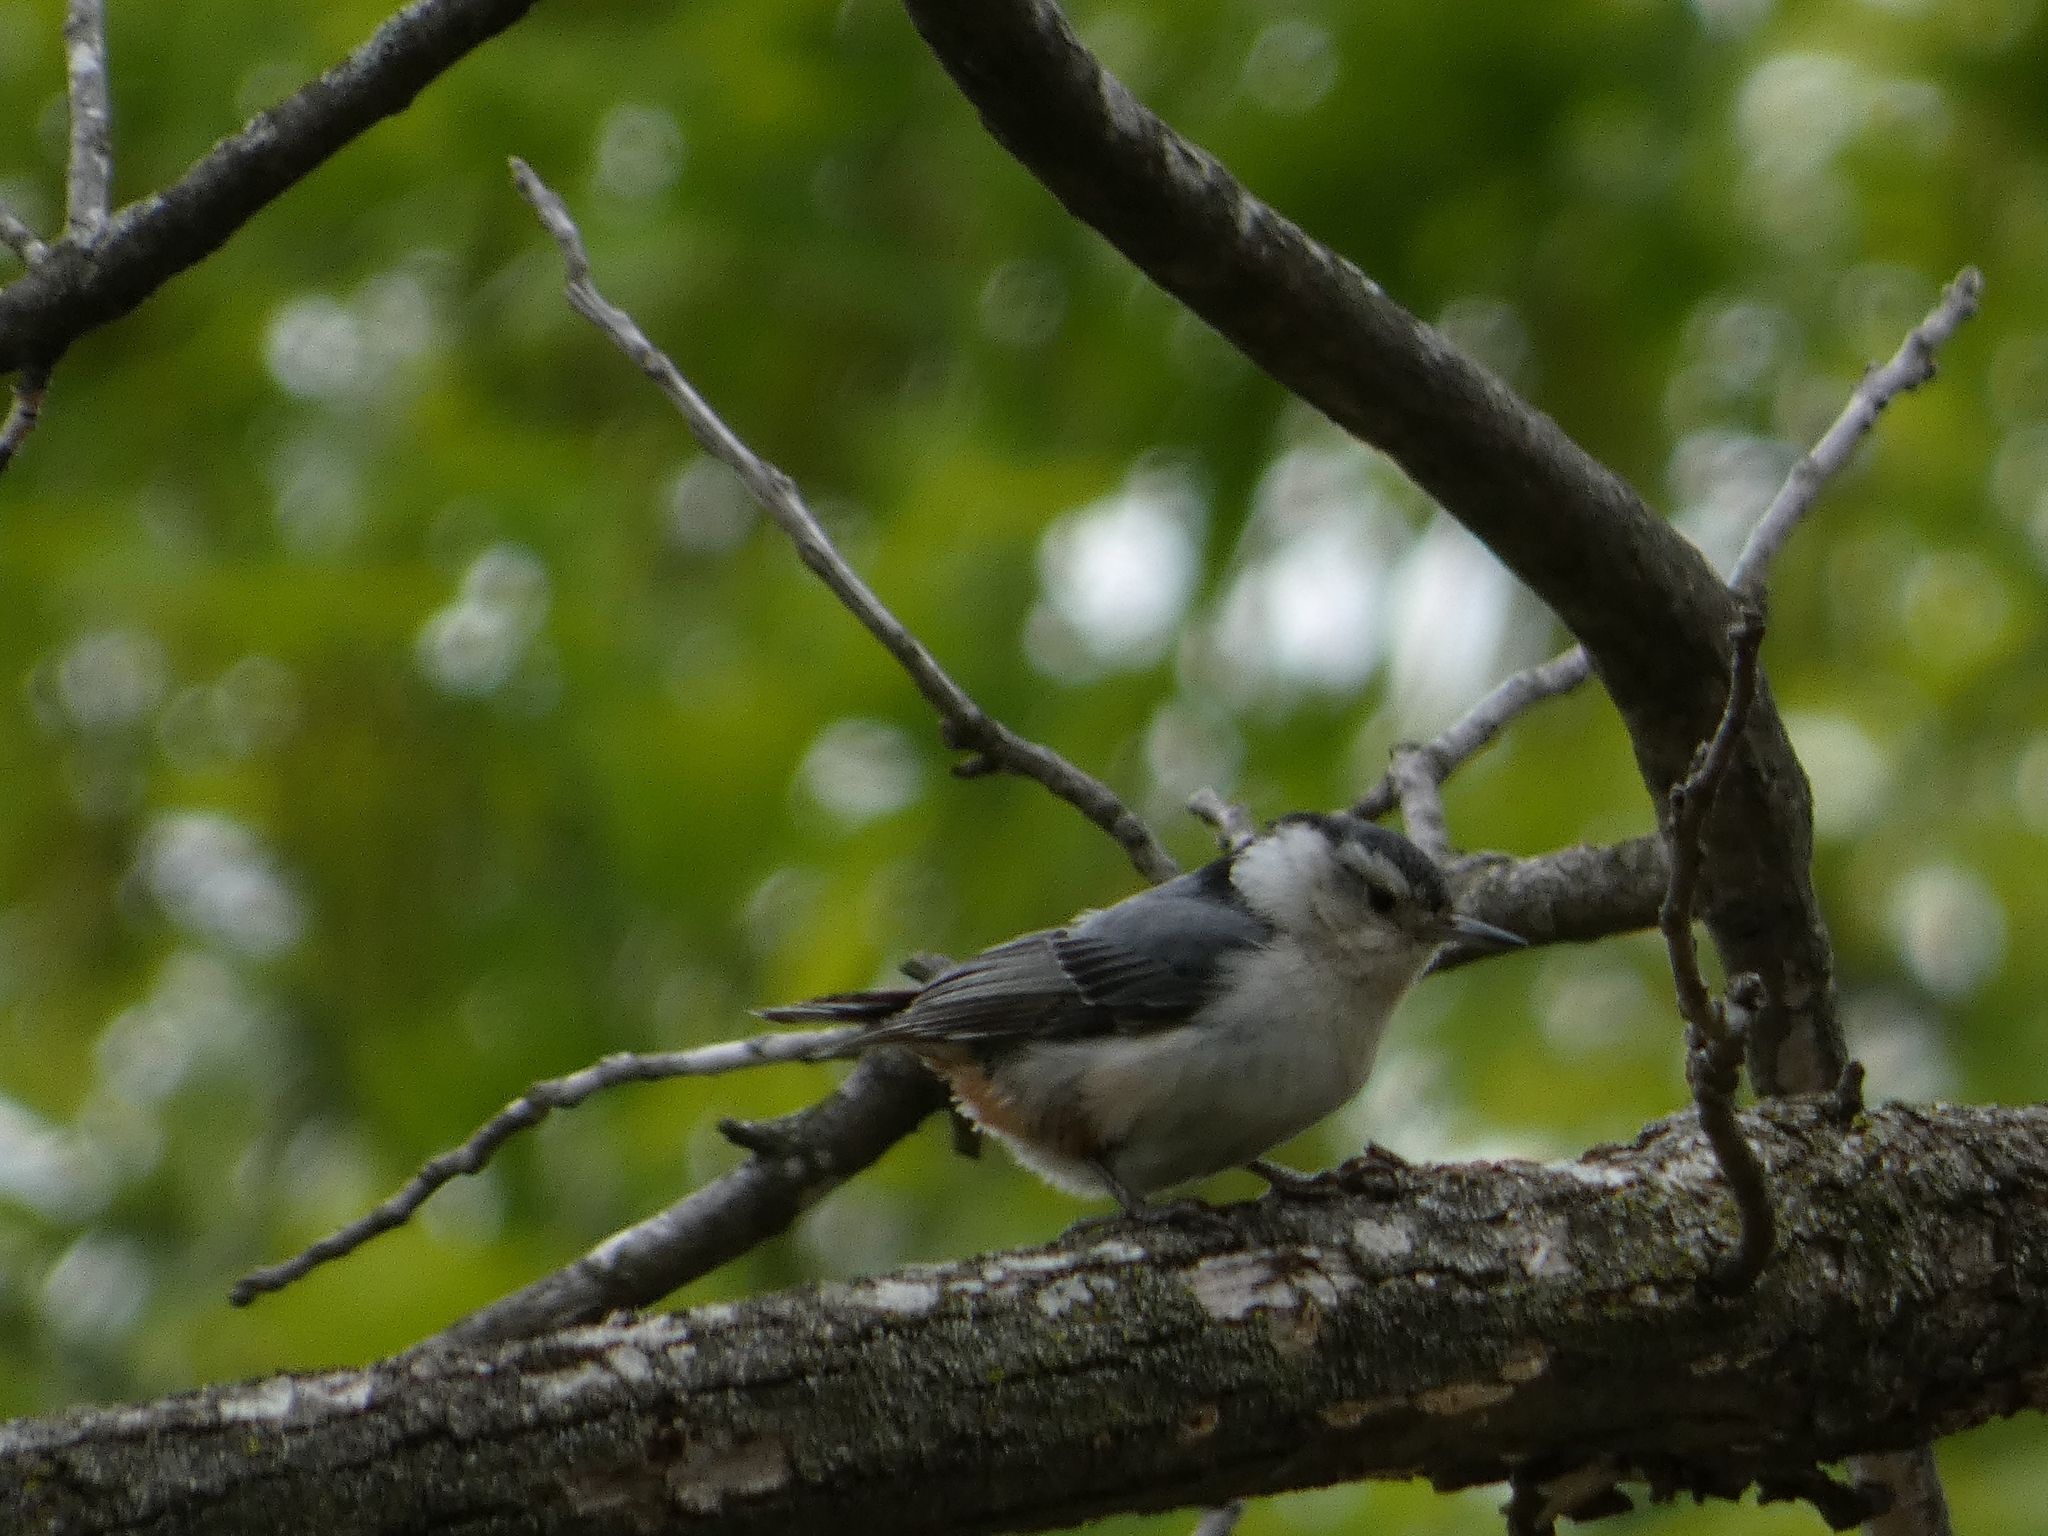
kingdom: Animalia
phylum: Chordata
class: Aves
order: Passeriformes
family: Sittidae
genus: Sitta
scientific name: Sitta carolinensis
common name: White-breasted nuthatch
